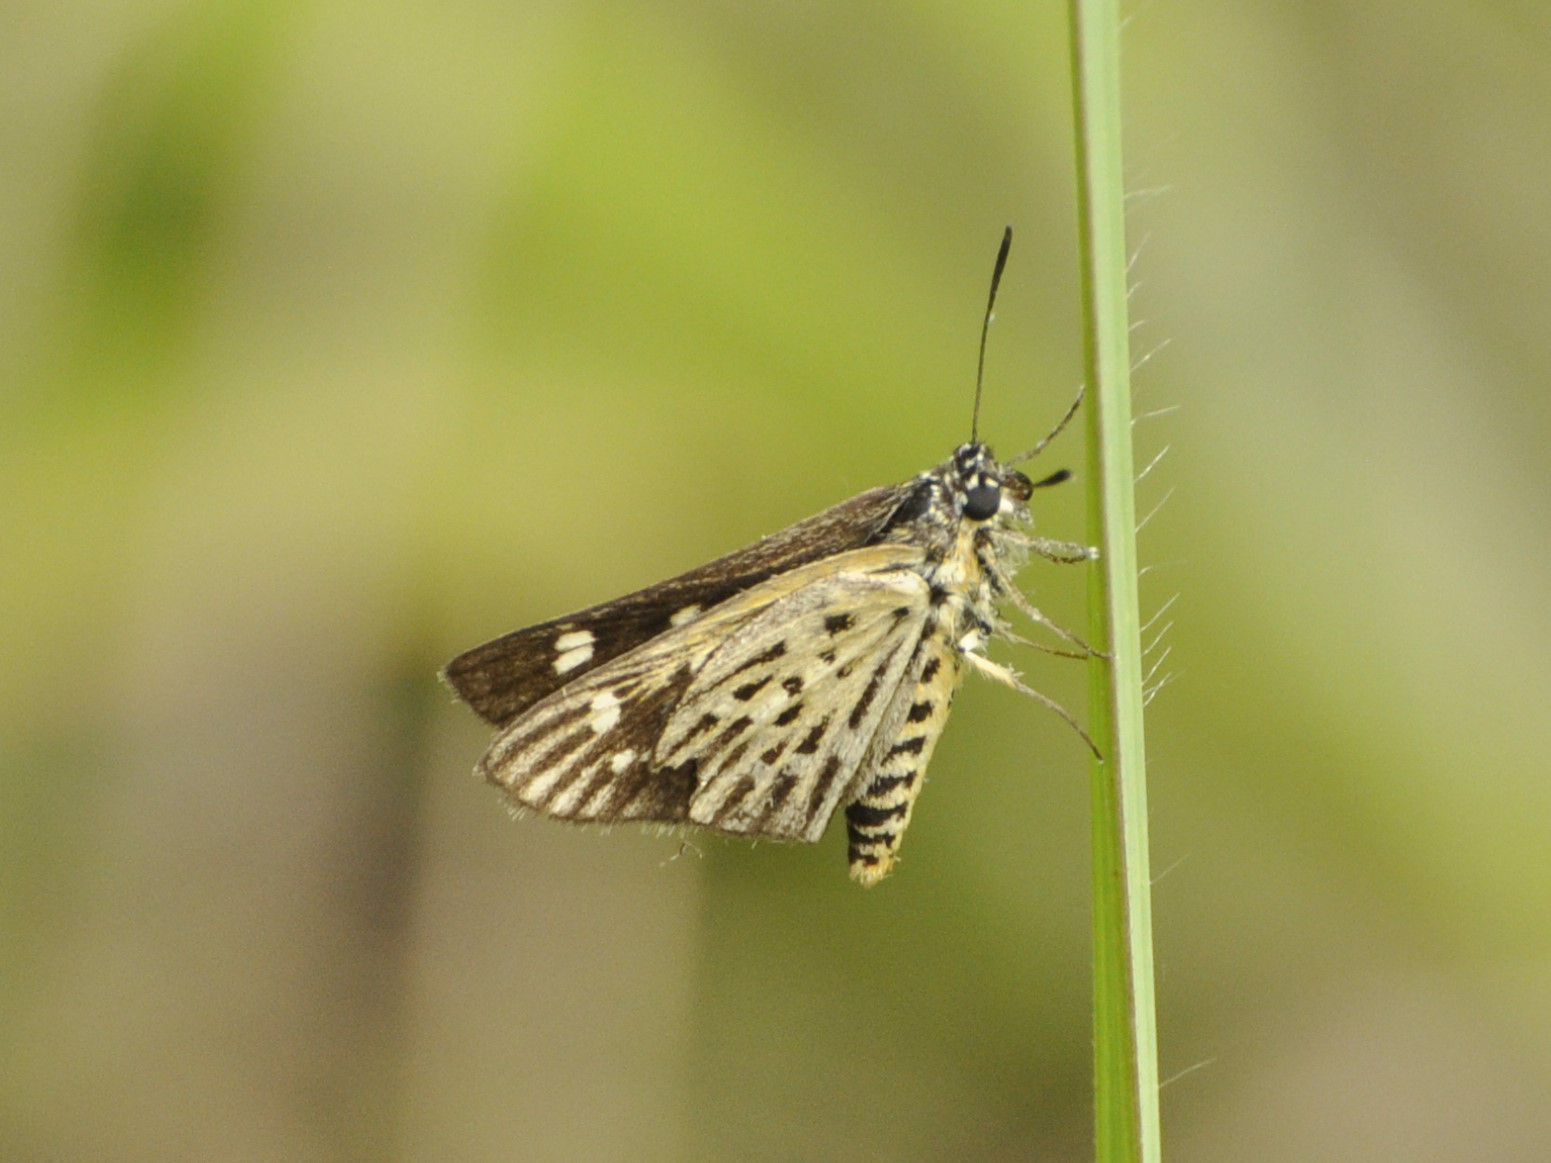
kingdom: Animalia
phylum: Arthropoda
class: Insecta
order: Lepidoptera
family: Hesperiidae
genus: Kedestes
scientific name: Kedestes lema
